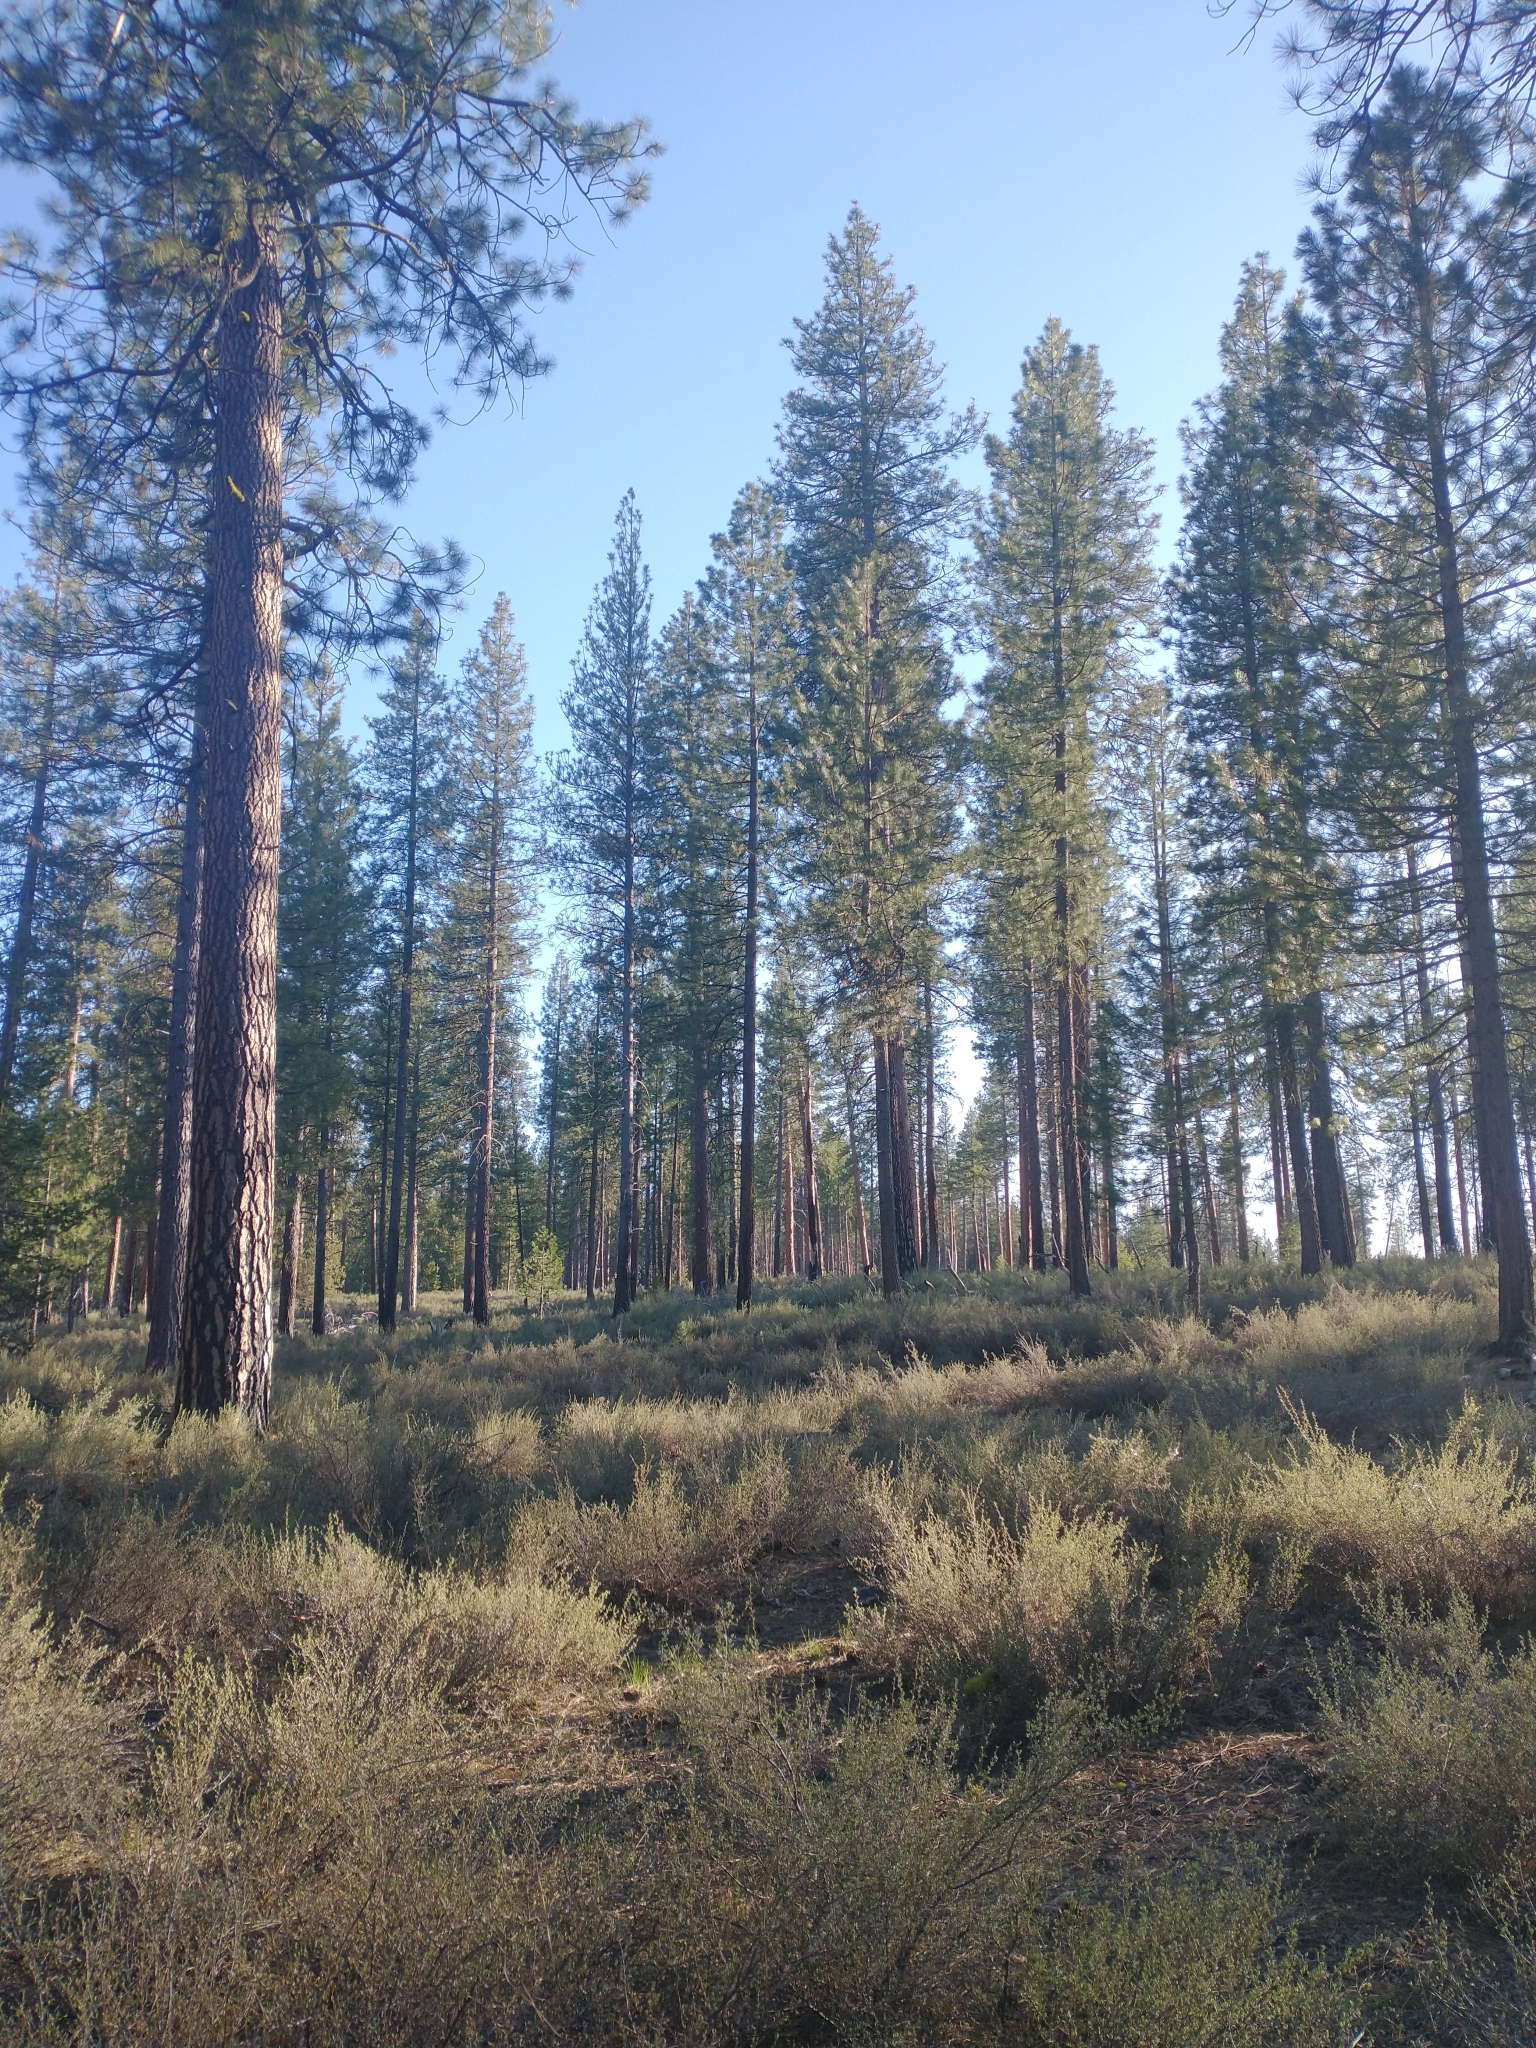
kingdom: Plantae
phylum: Tracheophyta
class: Pinopsida
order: Pinales
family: Pinaceae
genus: Pinus
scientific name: Pinus ponderosa
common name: Western yellow-pine
